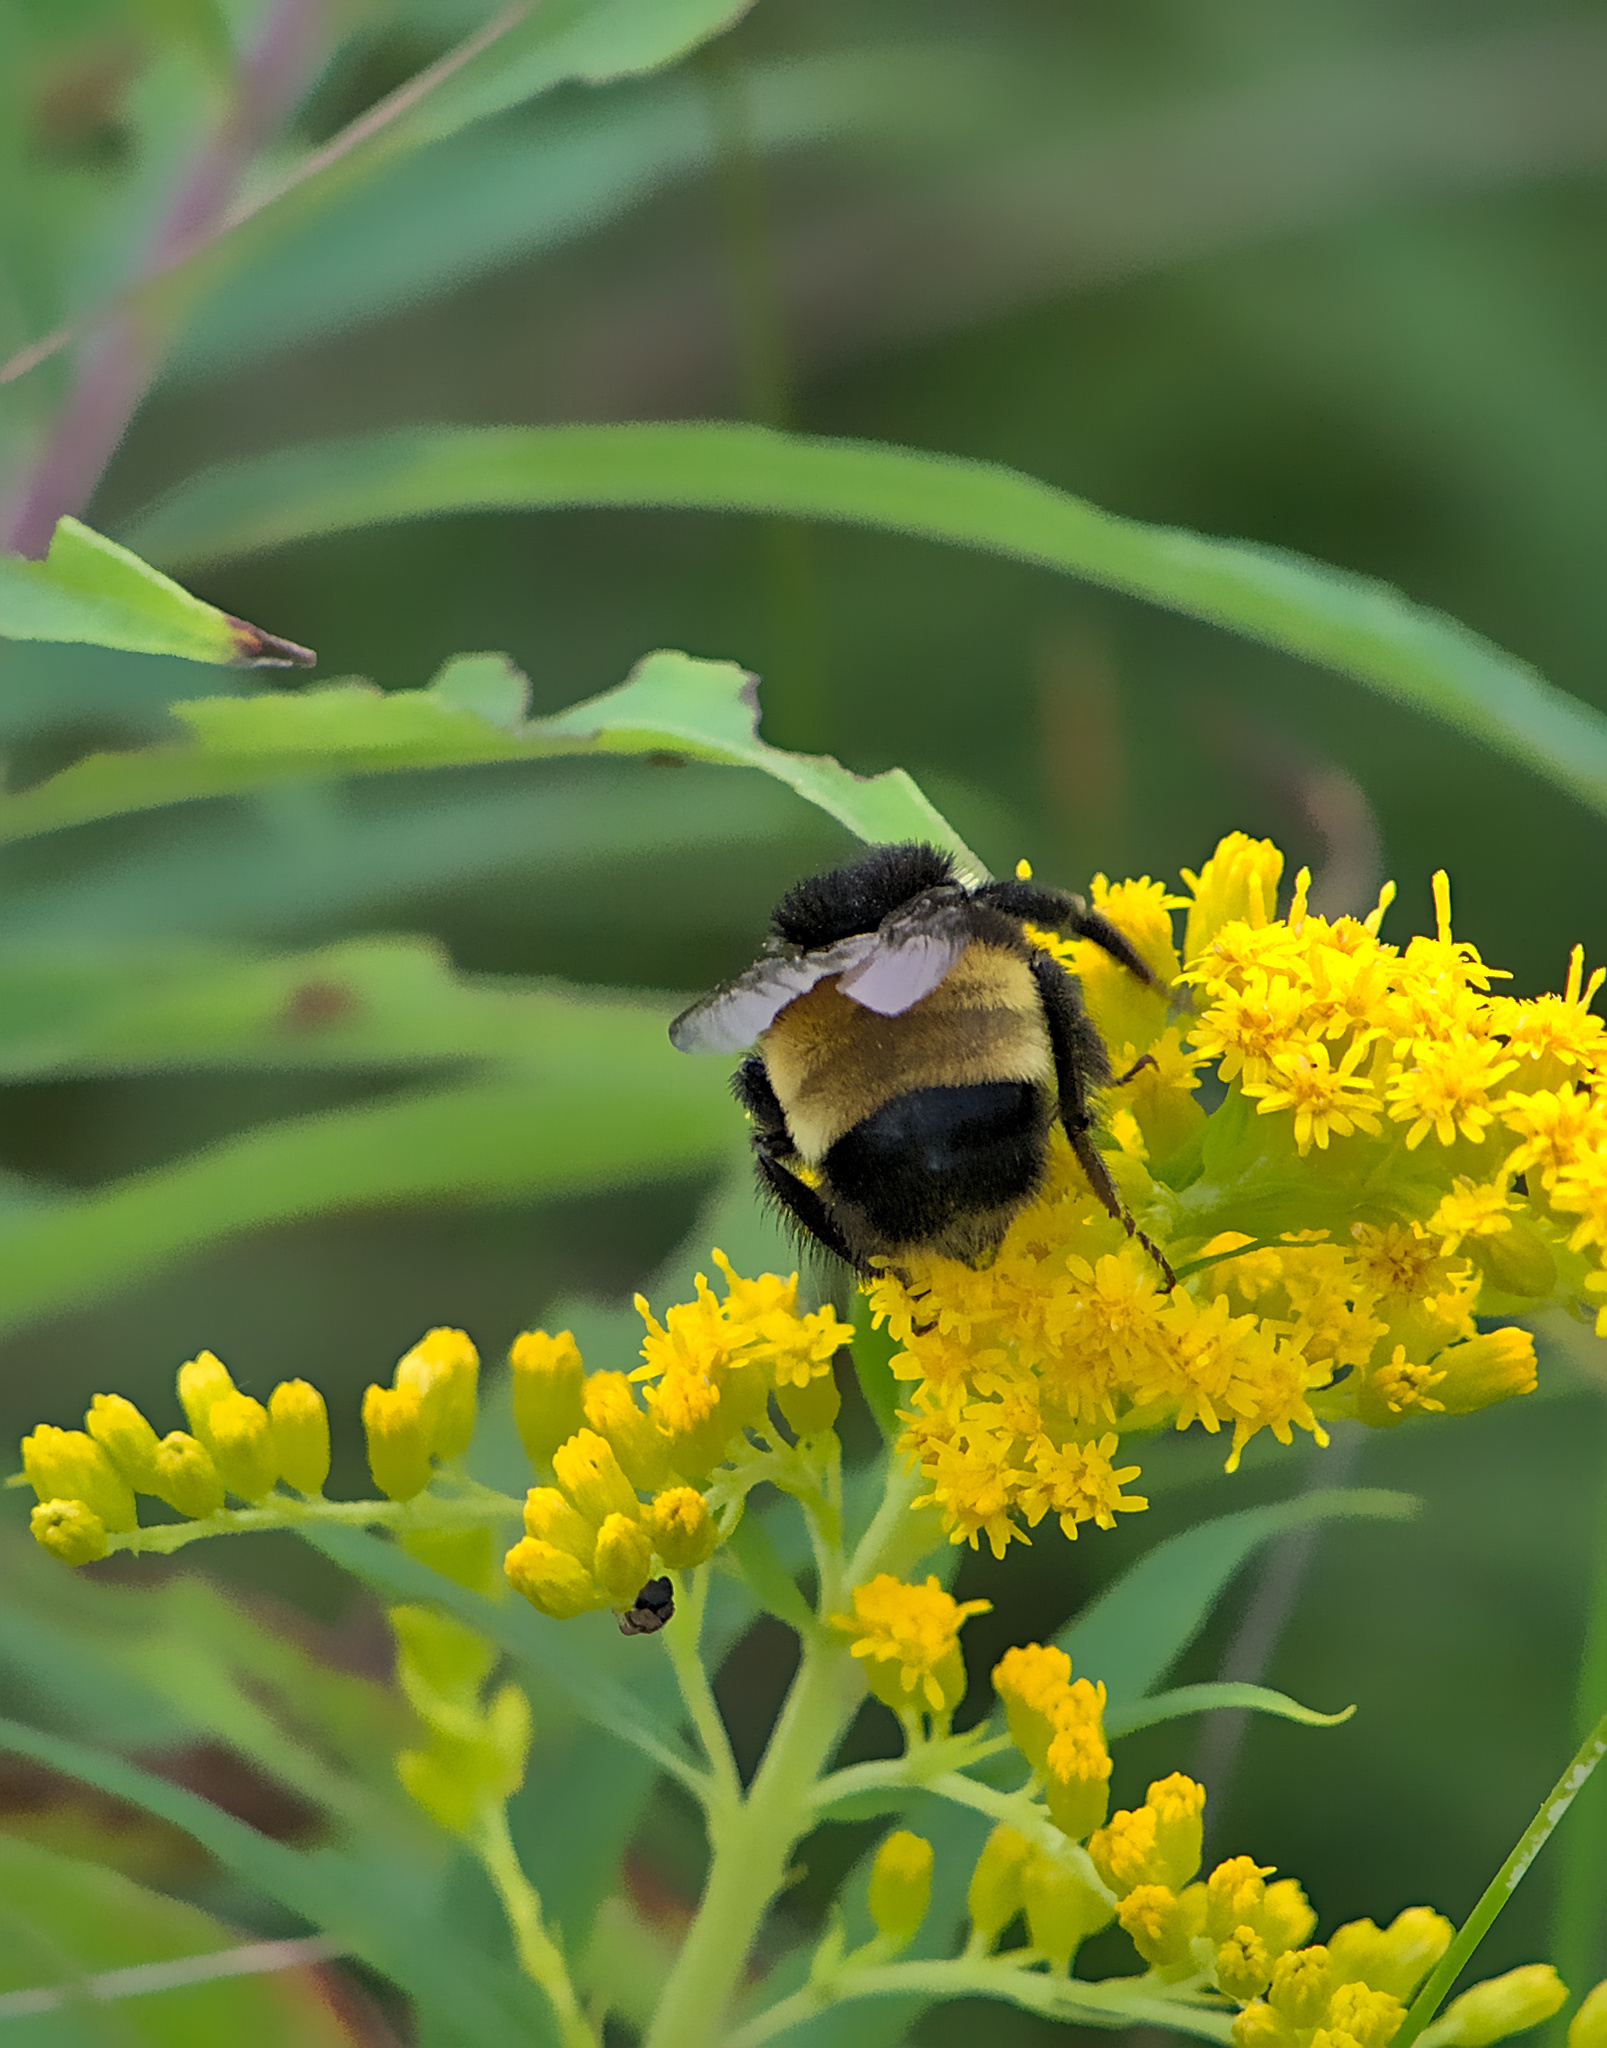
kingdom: Animalia
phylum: Arthropoda
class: Insecta
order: Hymenoptera
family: Apidae
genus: Bombus
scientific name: Bombus terricola
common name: Yellow-banded bumble bee
